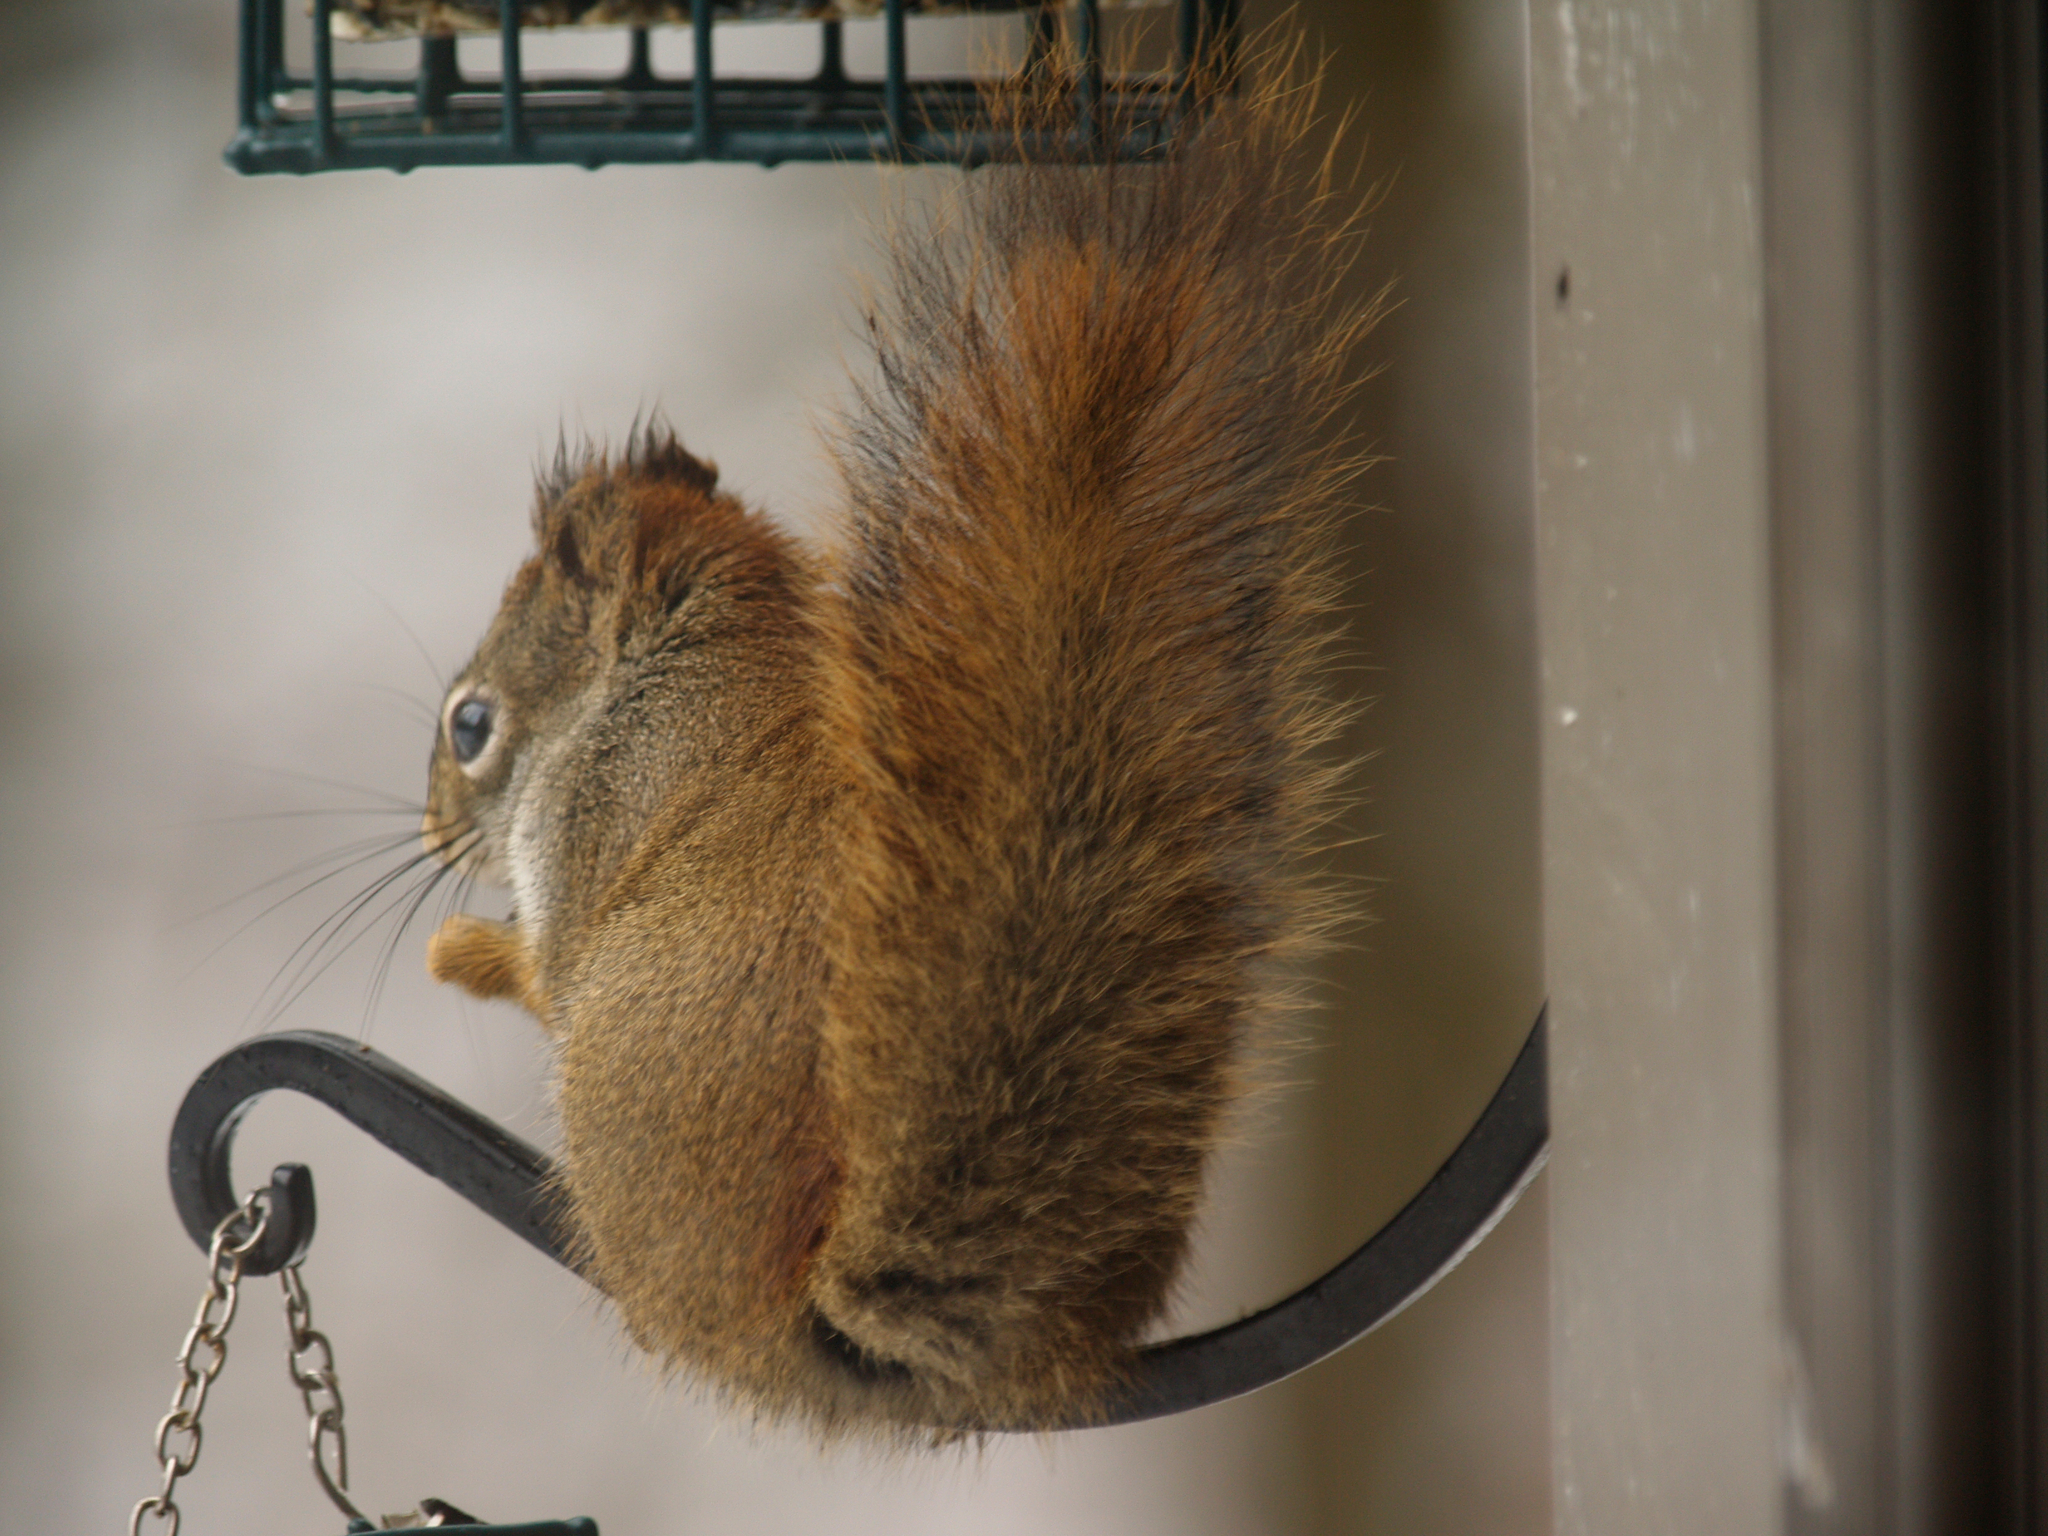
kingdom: Animalia
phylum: Chordata
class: Mammalia
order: Rodentia
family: Sciuridae
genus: Tamiasciurus
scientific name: Tamiasciurus hudsonicus
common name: Red squirrel
